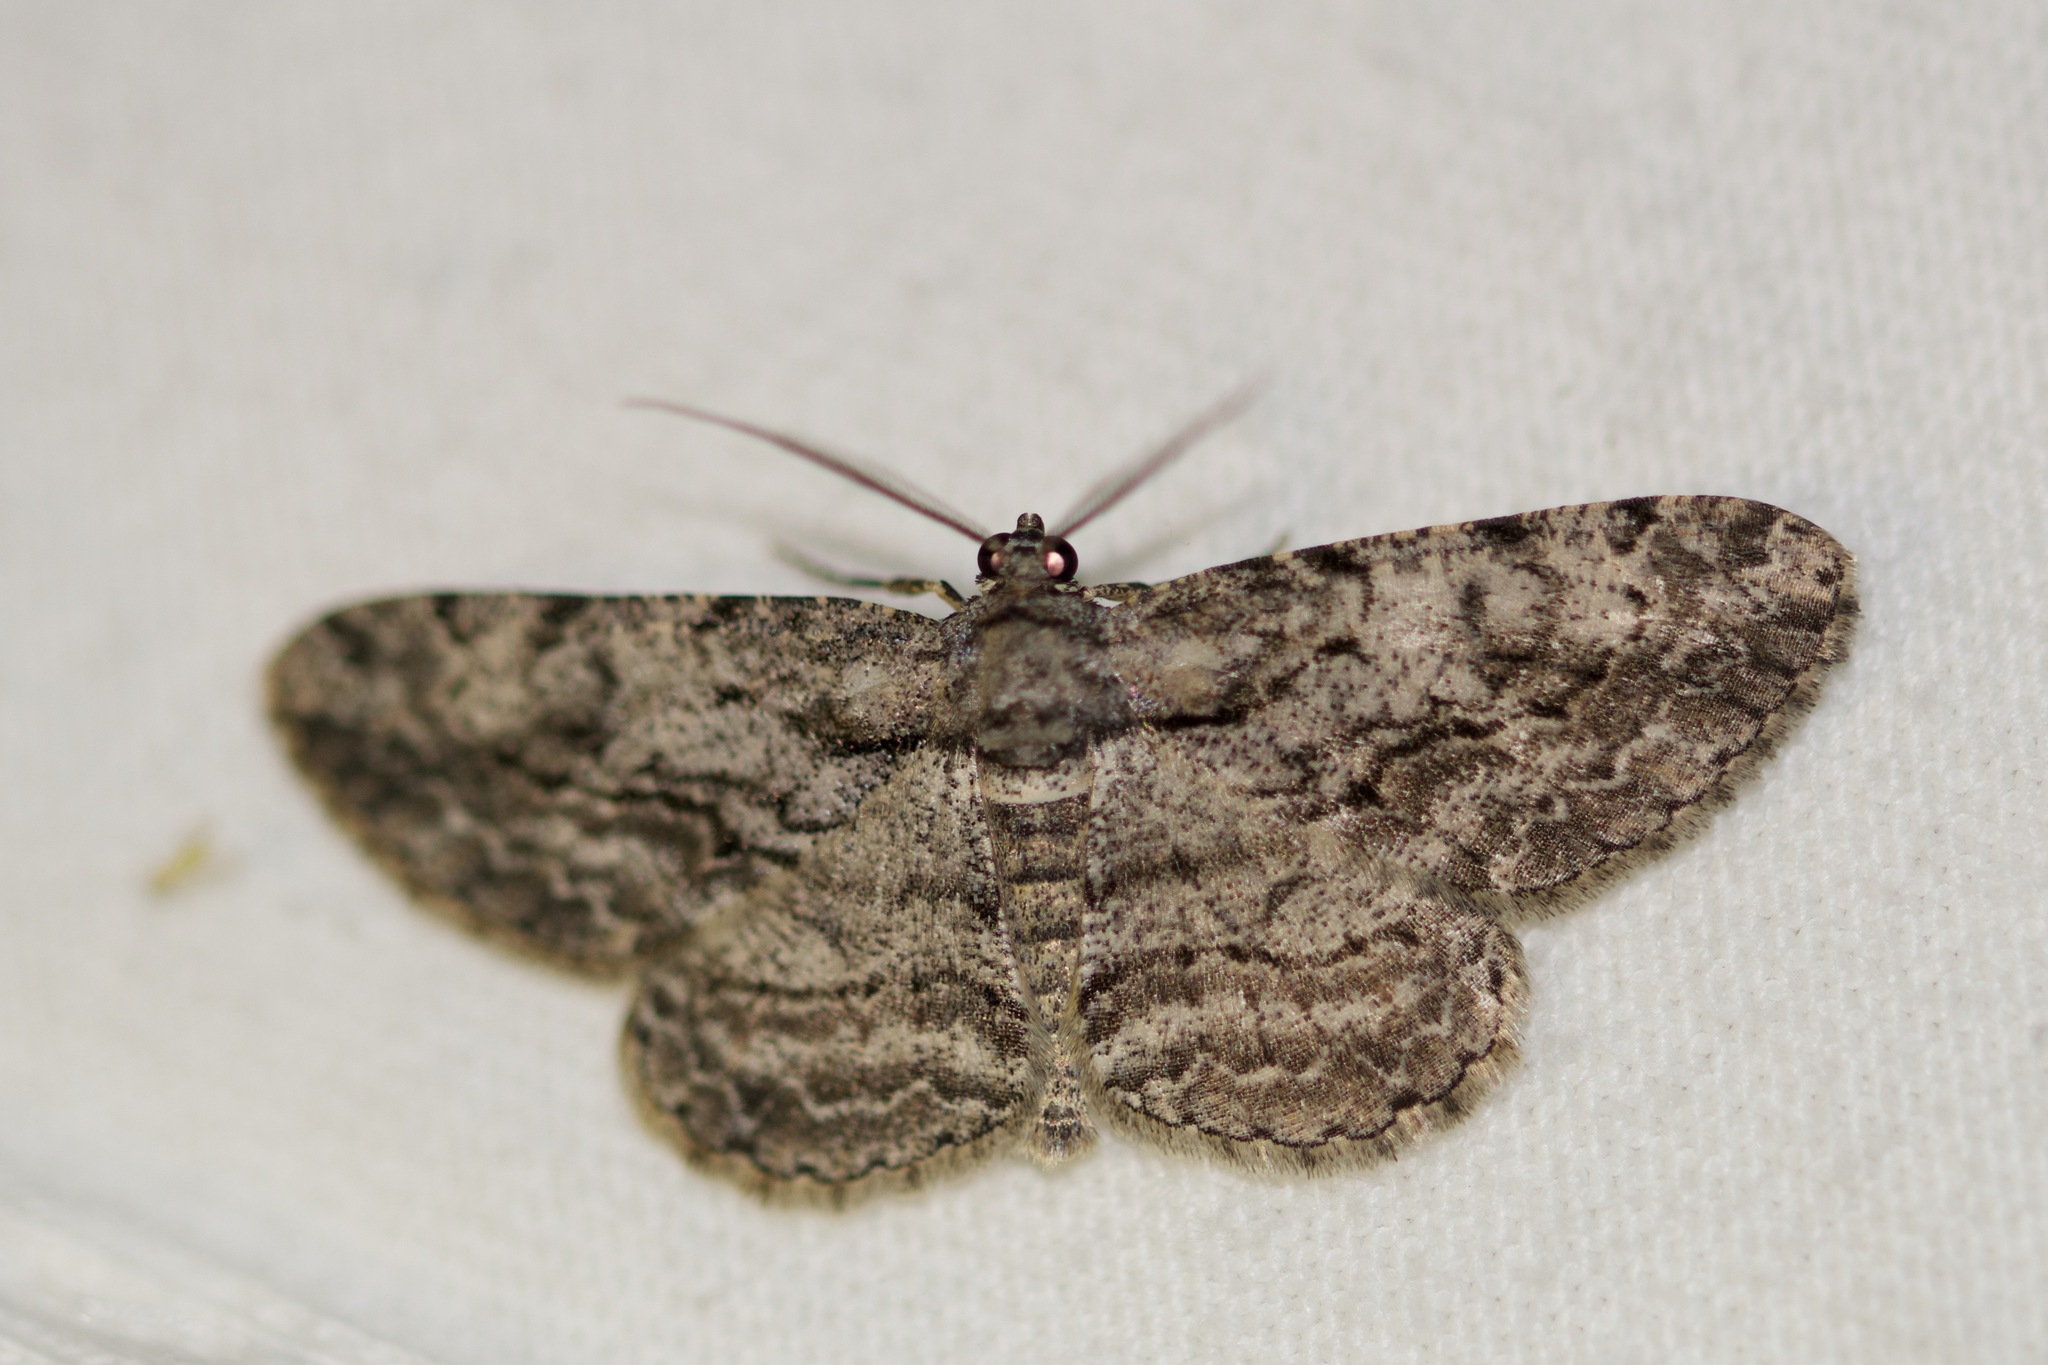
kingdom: Animalia
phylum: Arthropoda
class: Insecta
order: Lepidoptera
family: Geometridae
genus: Anavitrinella
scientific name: Anavitrinella pampinaria
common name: Common gray
